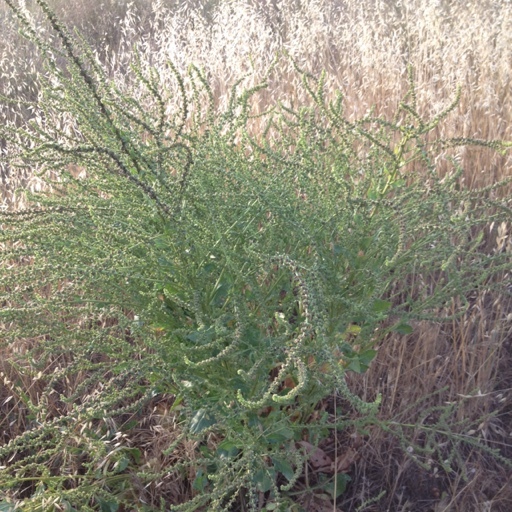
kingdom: Plantae
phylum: Tracheophyta
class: Magnoliopsida
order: Brassicales
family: Resedaceae
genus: Reseda
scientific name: Reseda luteola
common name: Weld
